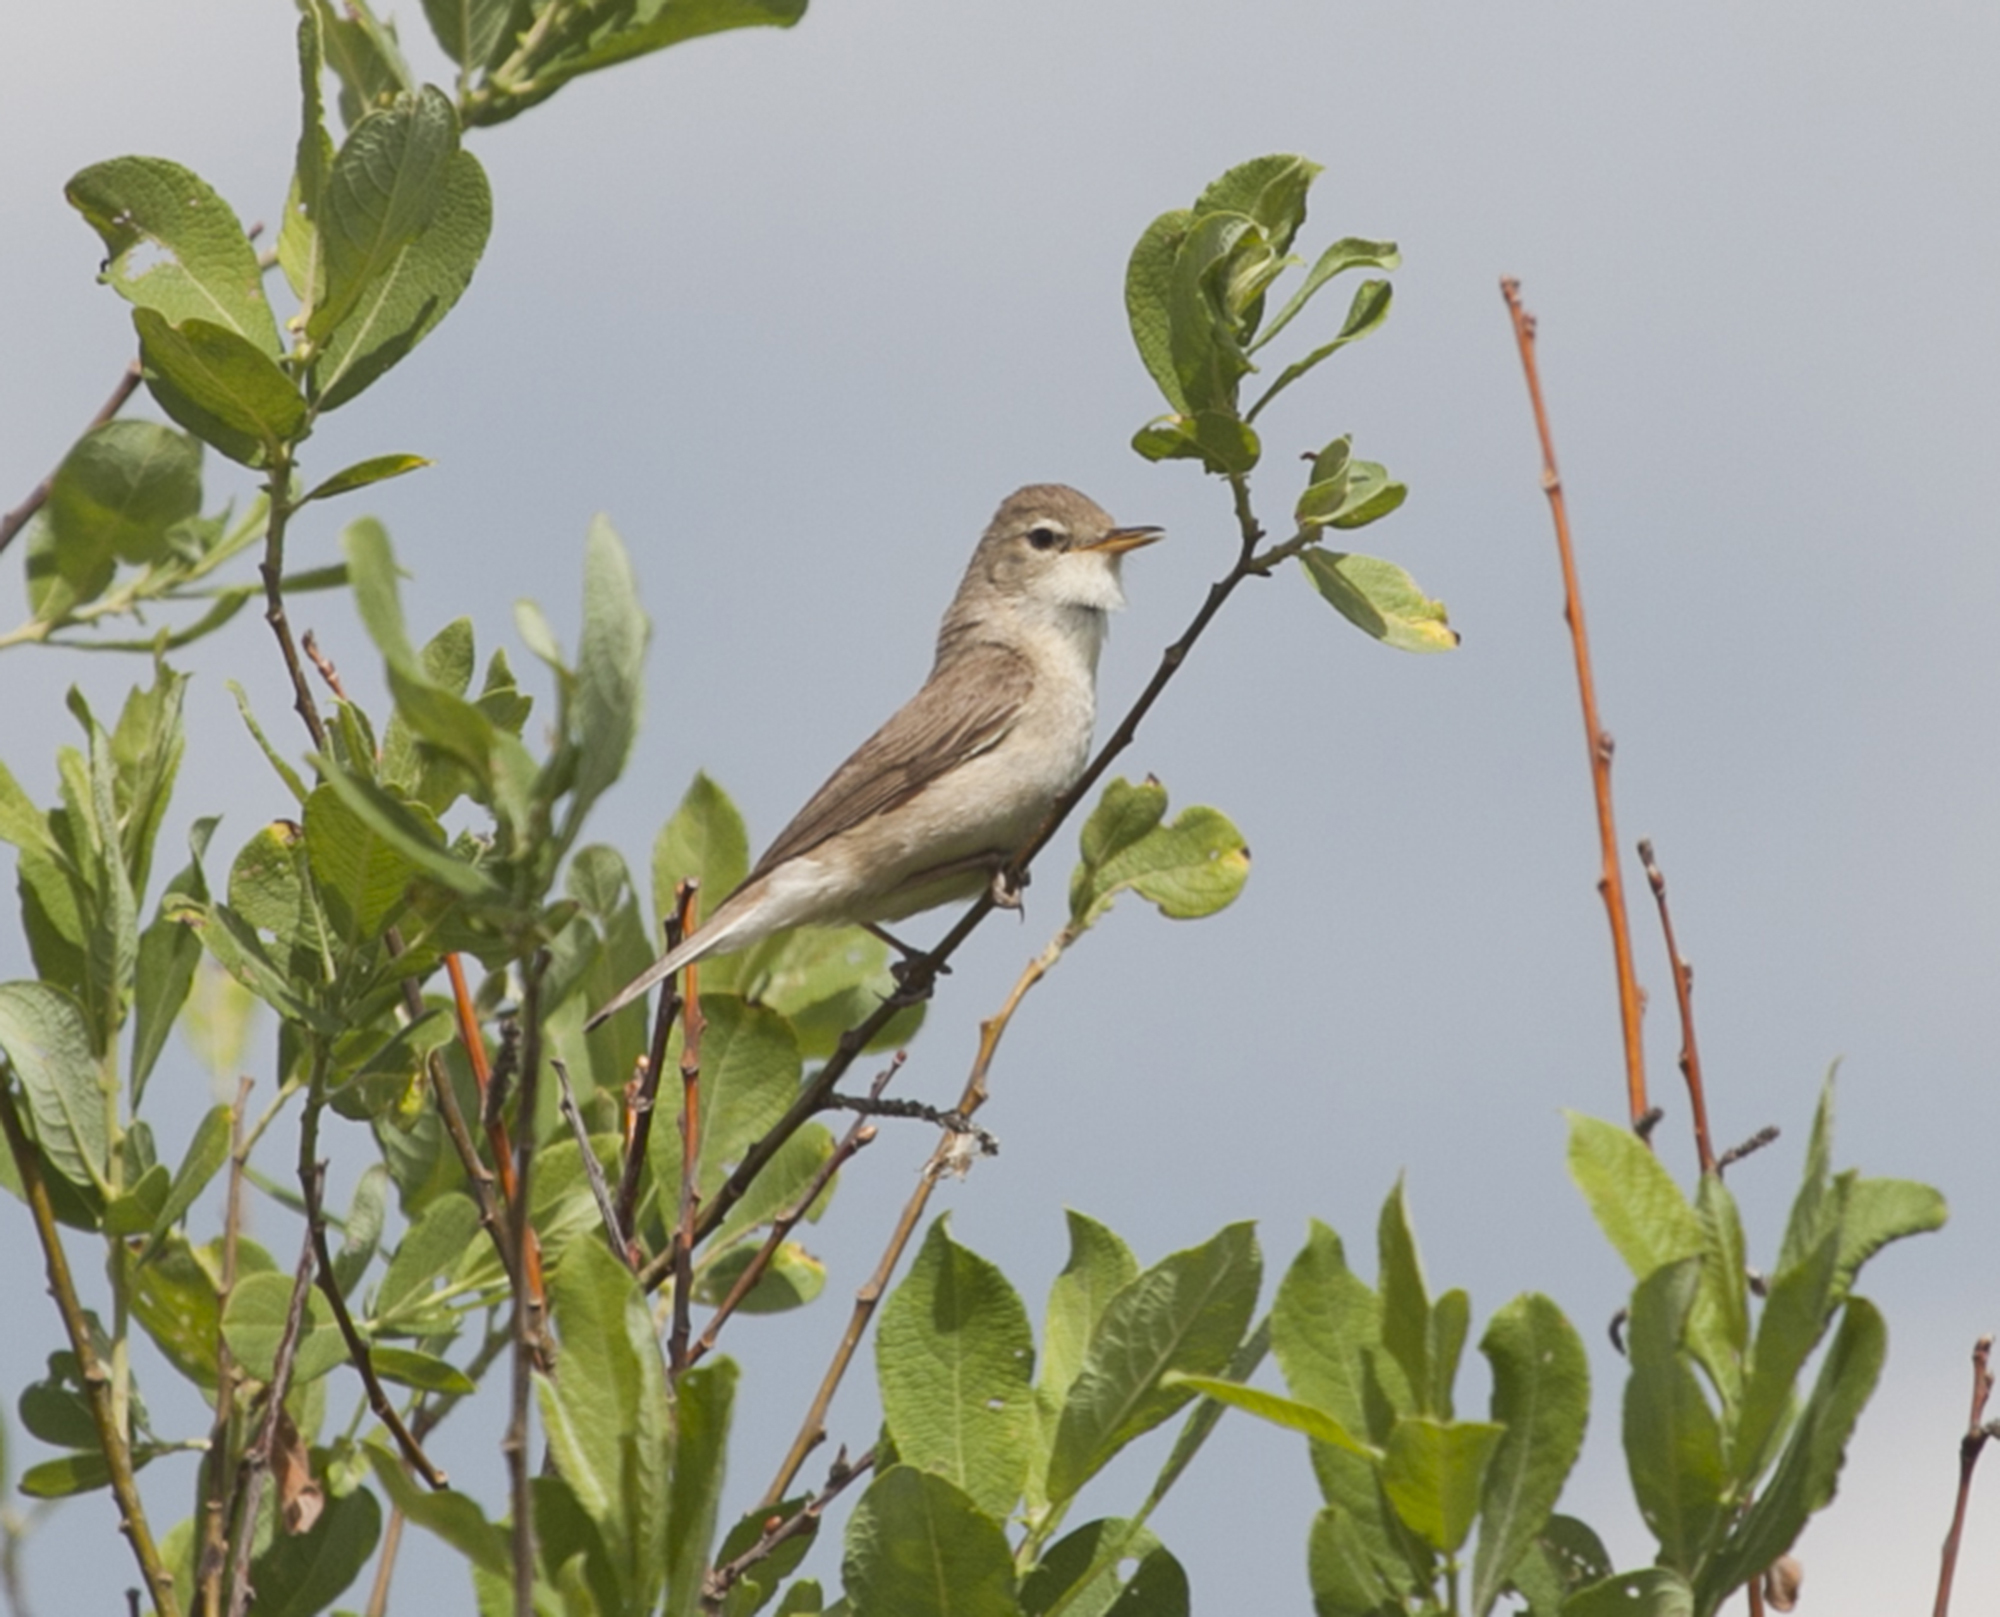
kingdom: Animalia
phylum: Chordata
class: Aves
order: Passeriformes
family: Acrocephalidae
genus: Iduna
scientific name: Iduna caligata
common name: Booted warbler
